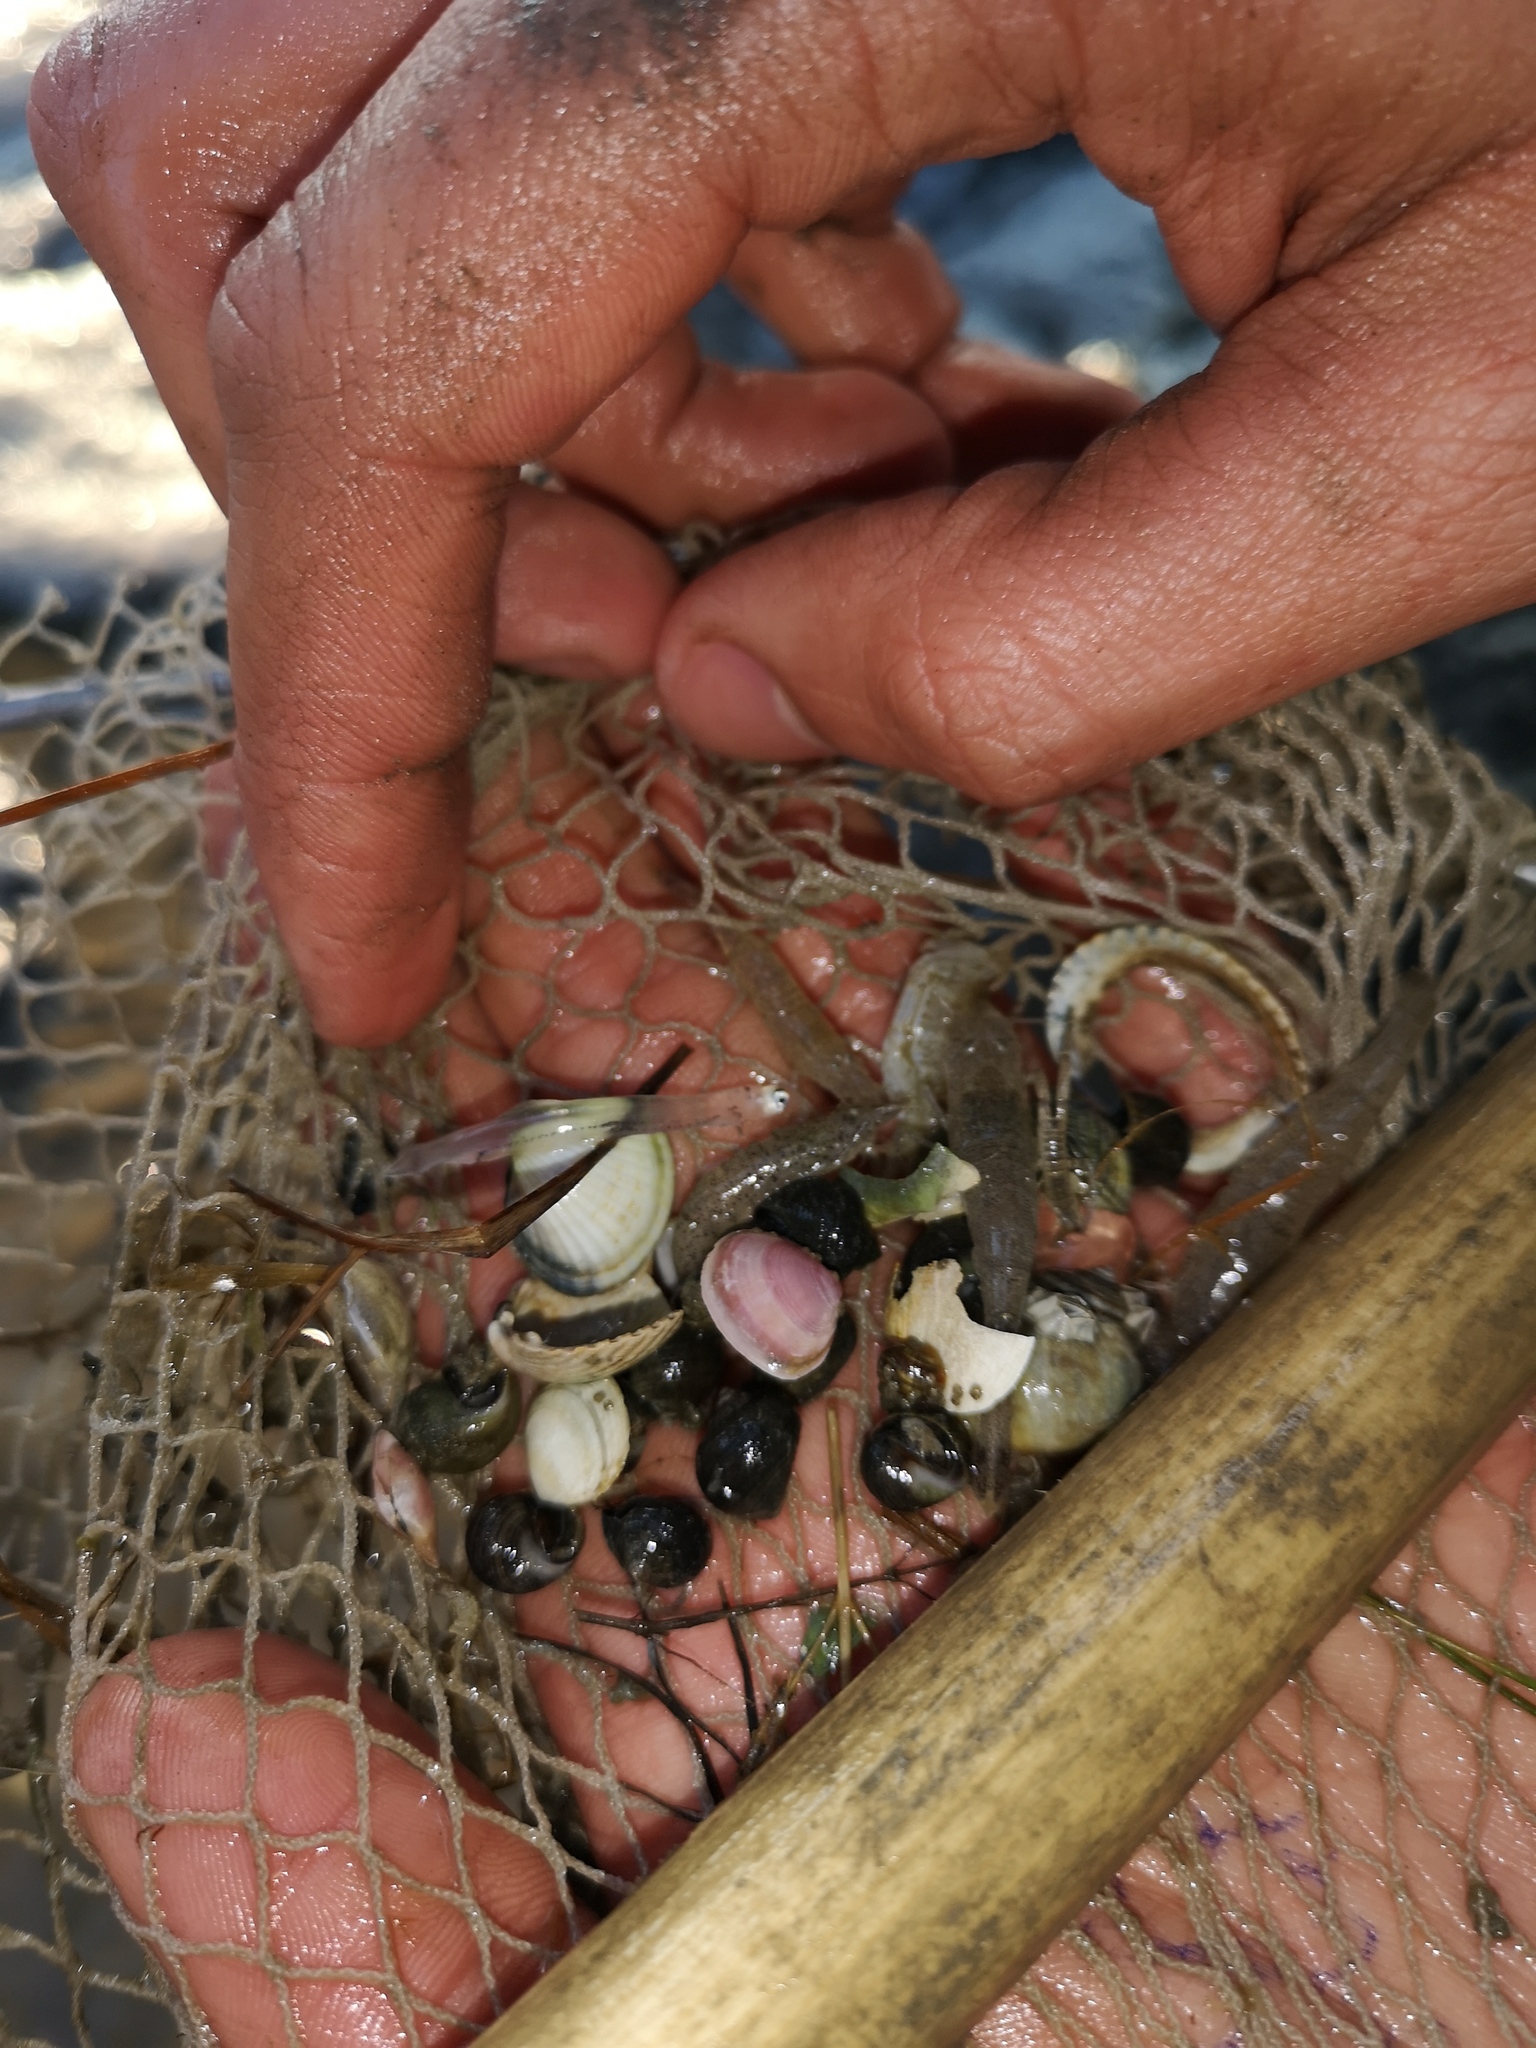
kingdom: Animalia
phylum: Chordata
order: Anguilliformes
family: Anguillidae
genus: Anguilla
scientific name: Anguilla anguilla
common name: European eel
